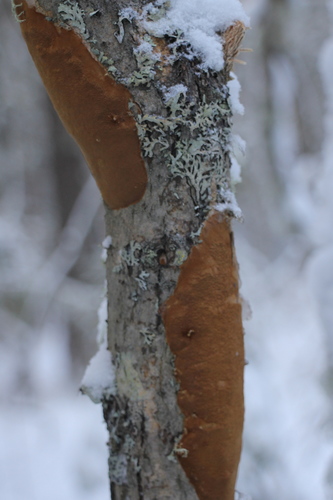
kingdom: Fungi
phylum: Basidiomycota
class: Agaricomycetes
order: Hymenochaetales
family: Hymenochaetaceae
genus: Fomitiporia
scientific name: Fomitiporia punctata
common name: Elbowpatch crust
